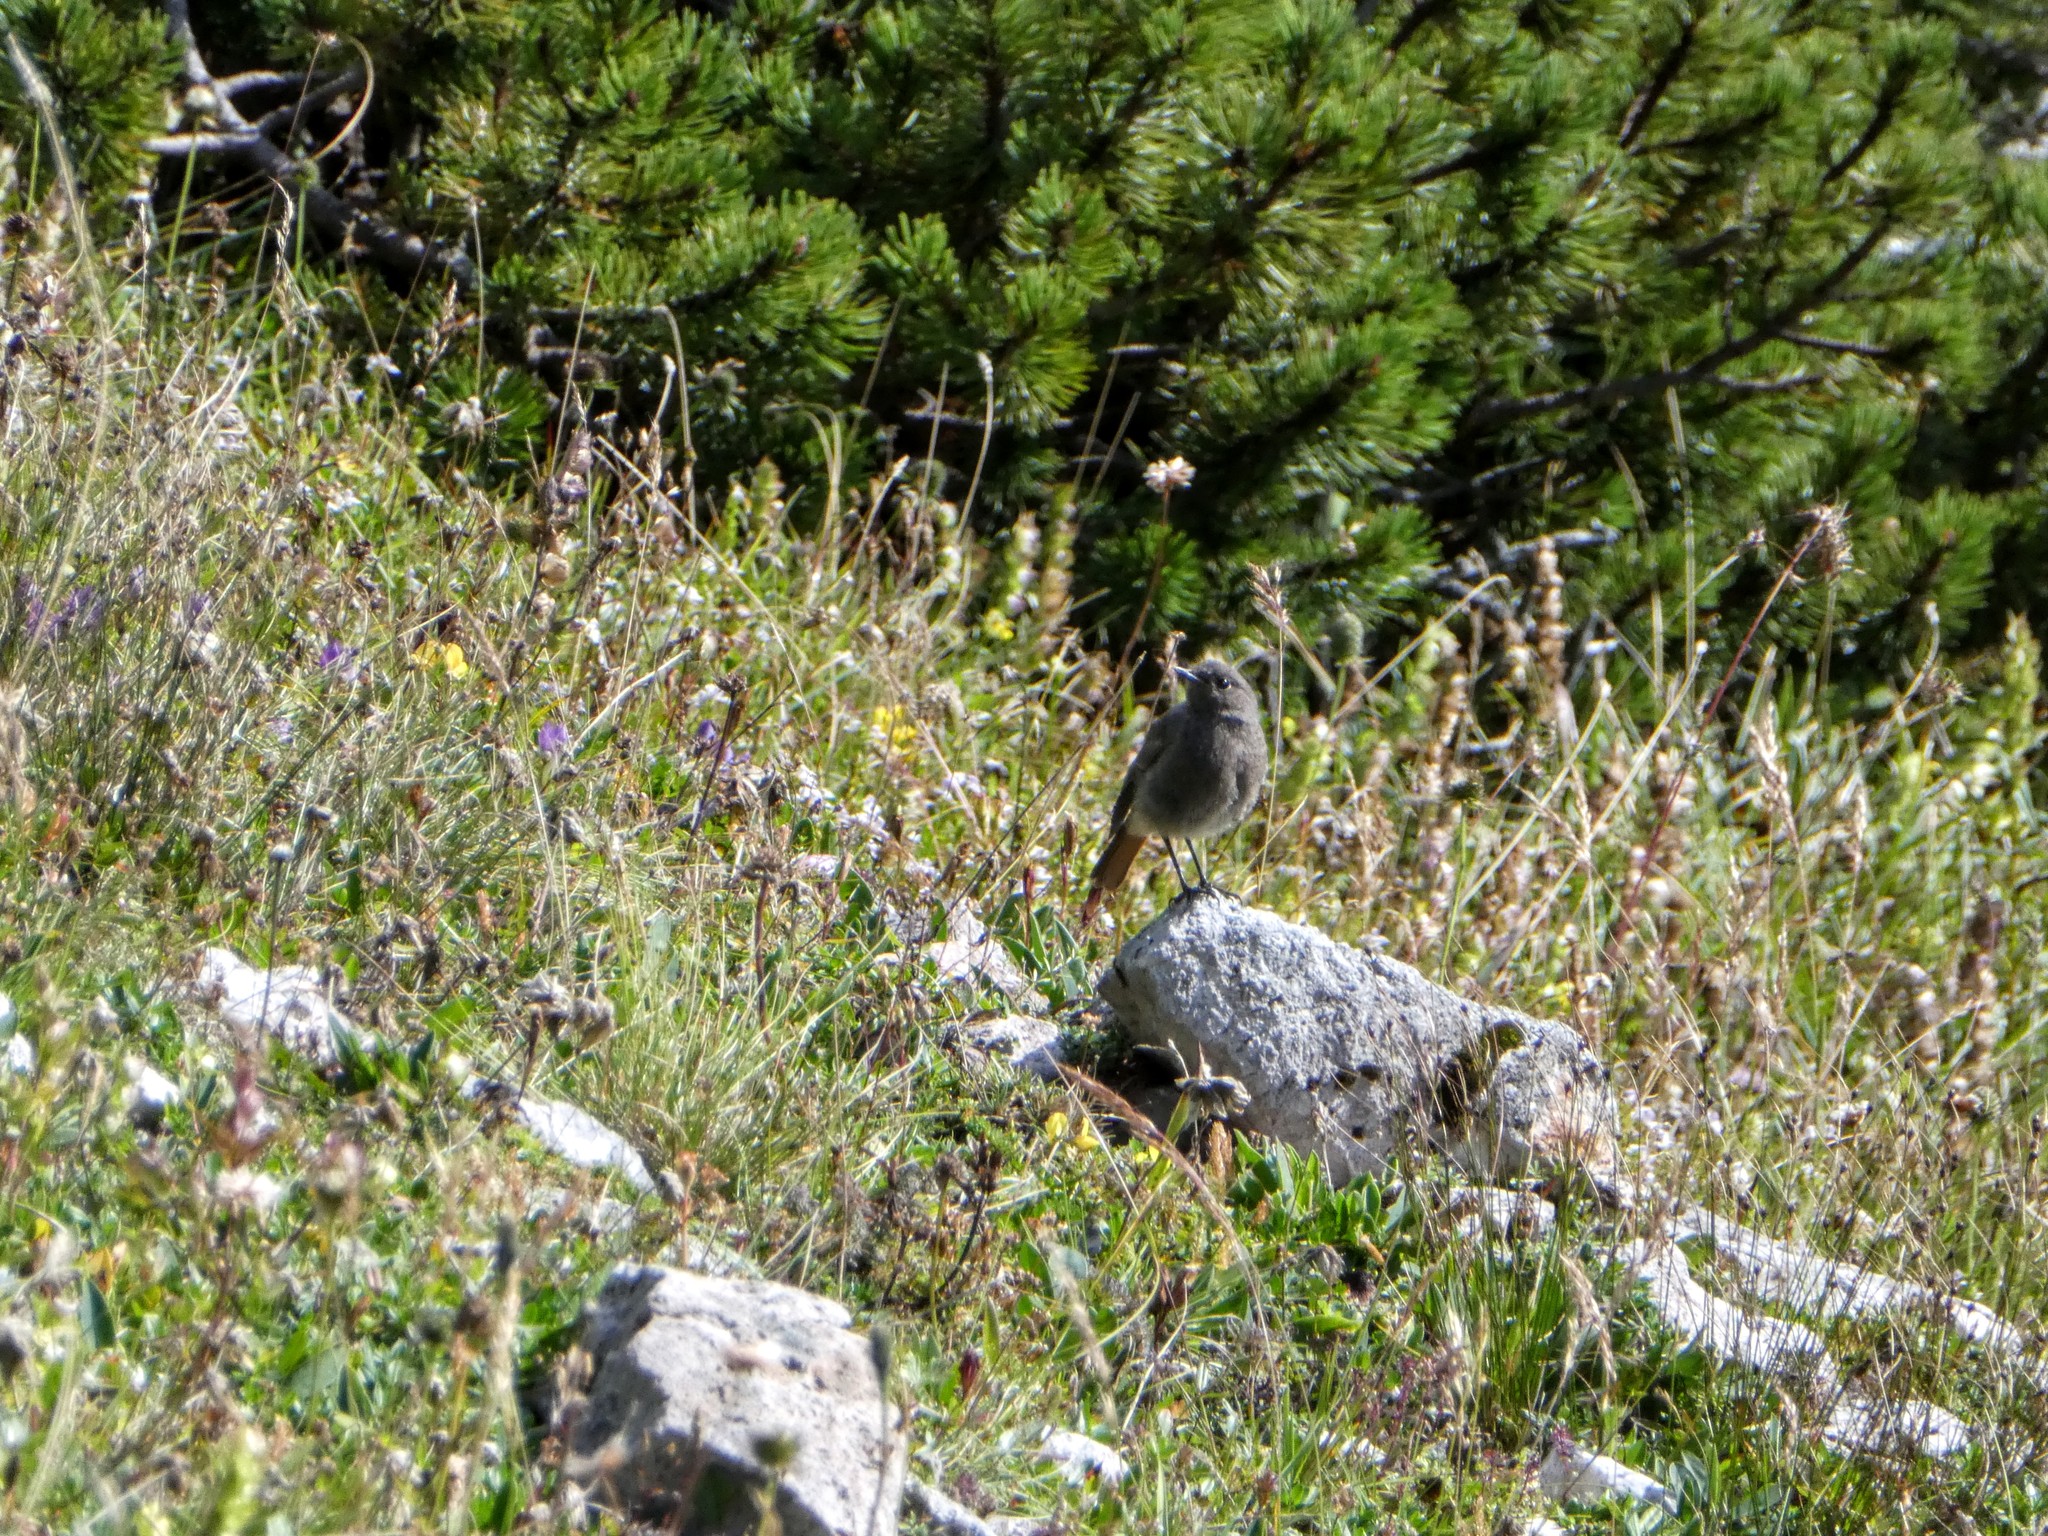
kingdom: Animalia
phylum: Chordata
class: Aves
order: Passeriformes
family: Muscicapidae
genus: Phoenicurus
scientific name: Phoenicurus ochruros
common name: Black redstart
